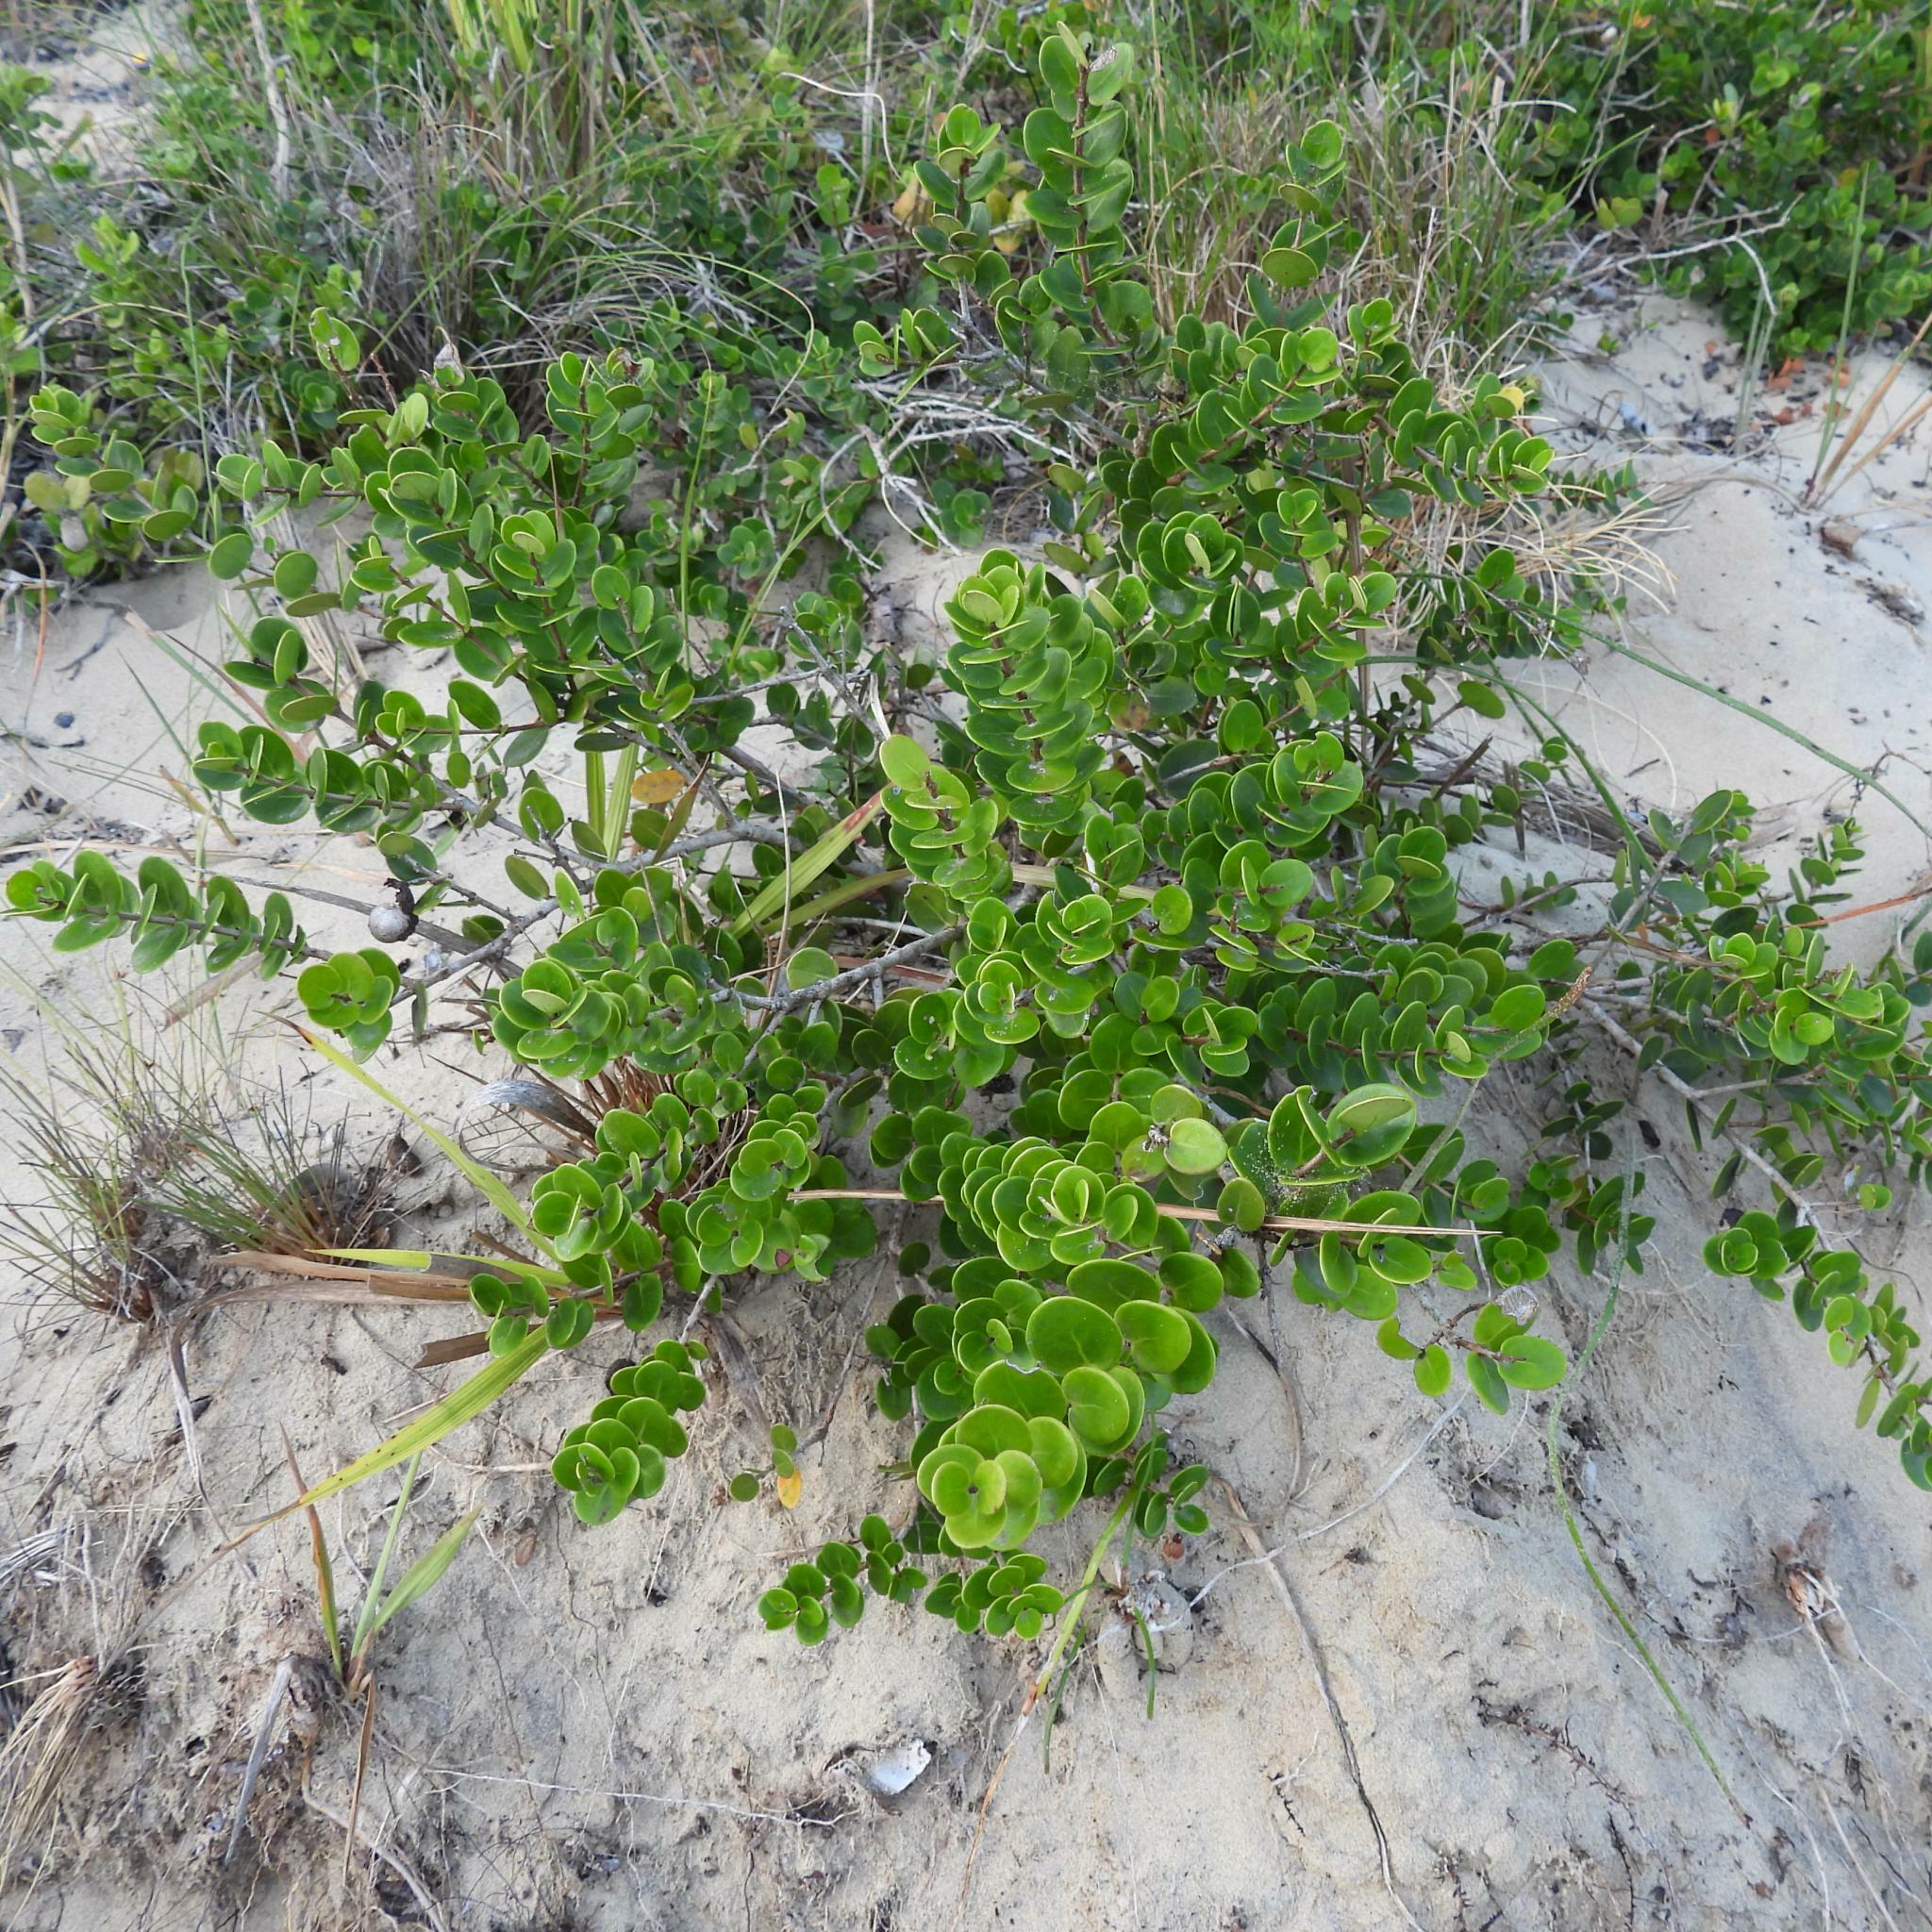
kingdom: Plantae
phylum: Tracheophyta
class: Magnoliopsida
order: Myrtales
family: Myrtaceae
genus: Eugenia
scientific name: Eugenia capensis
